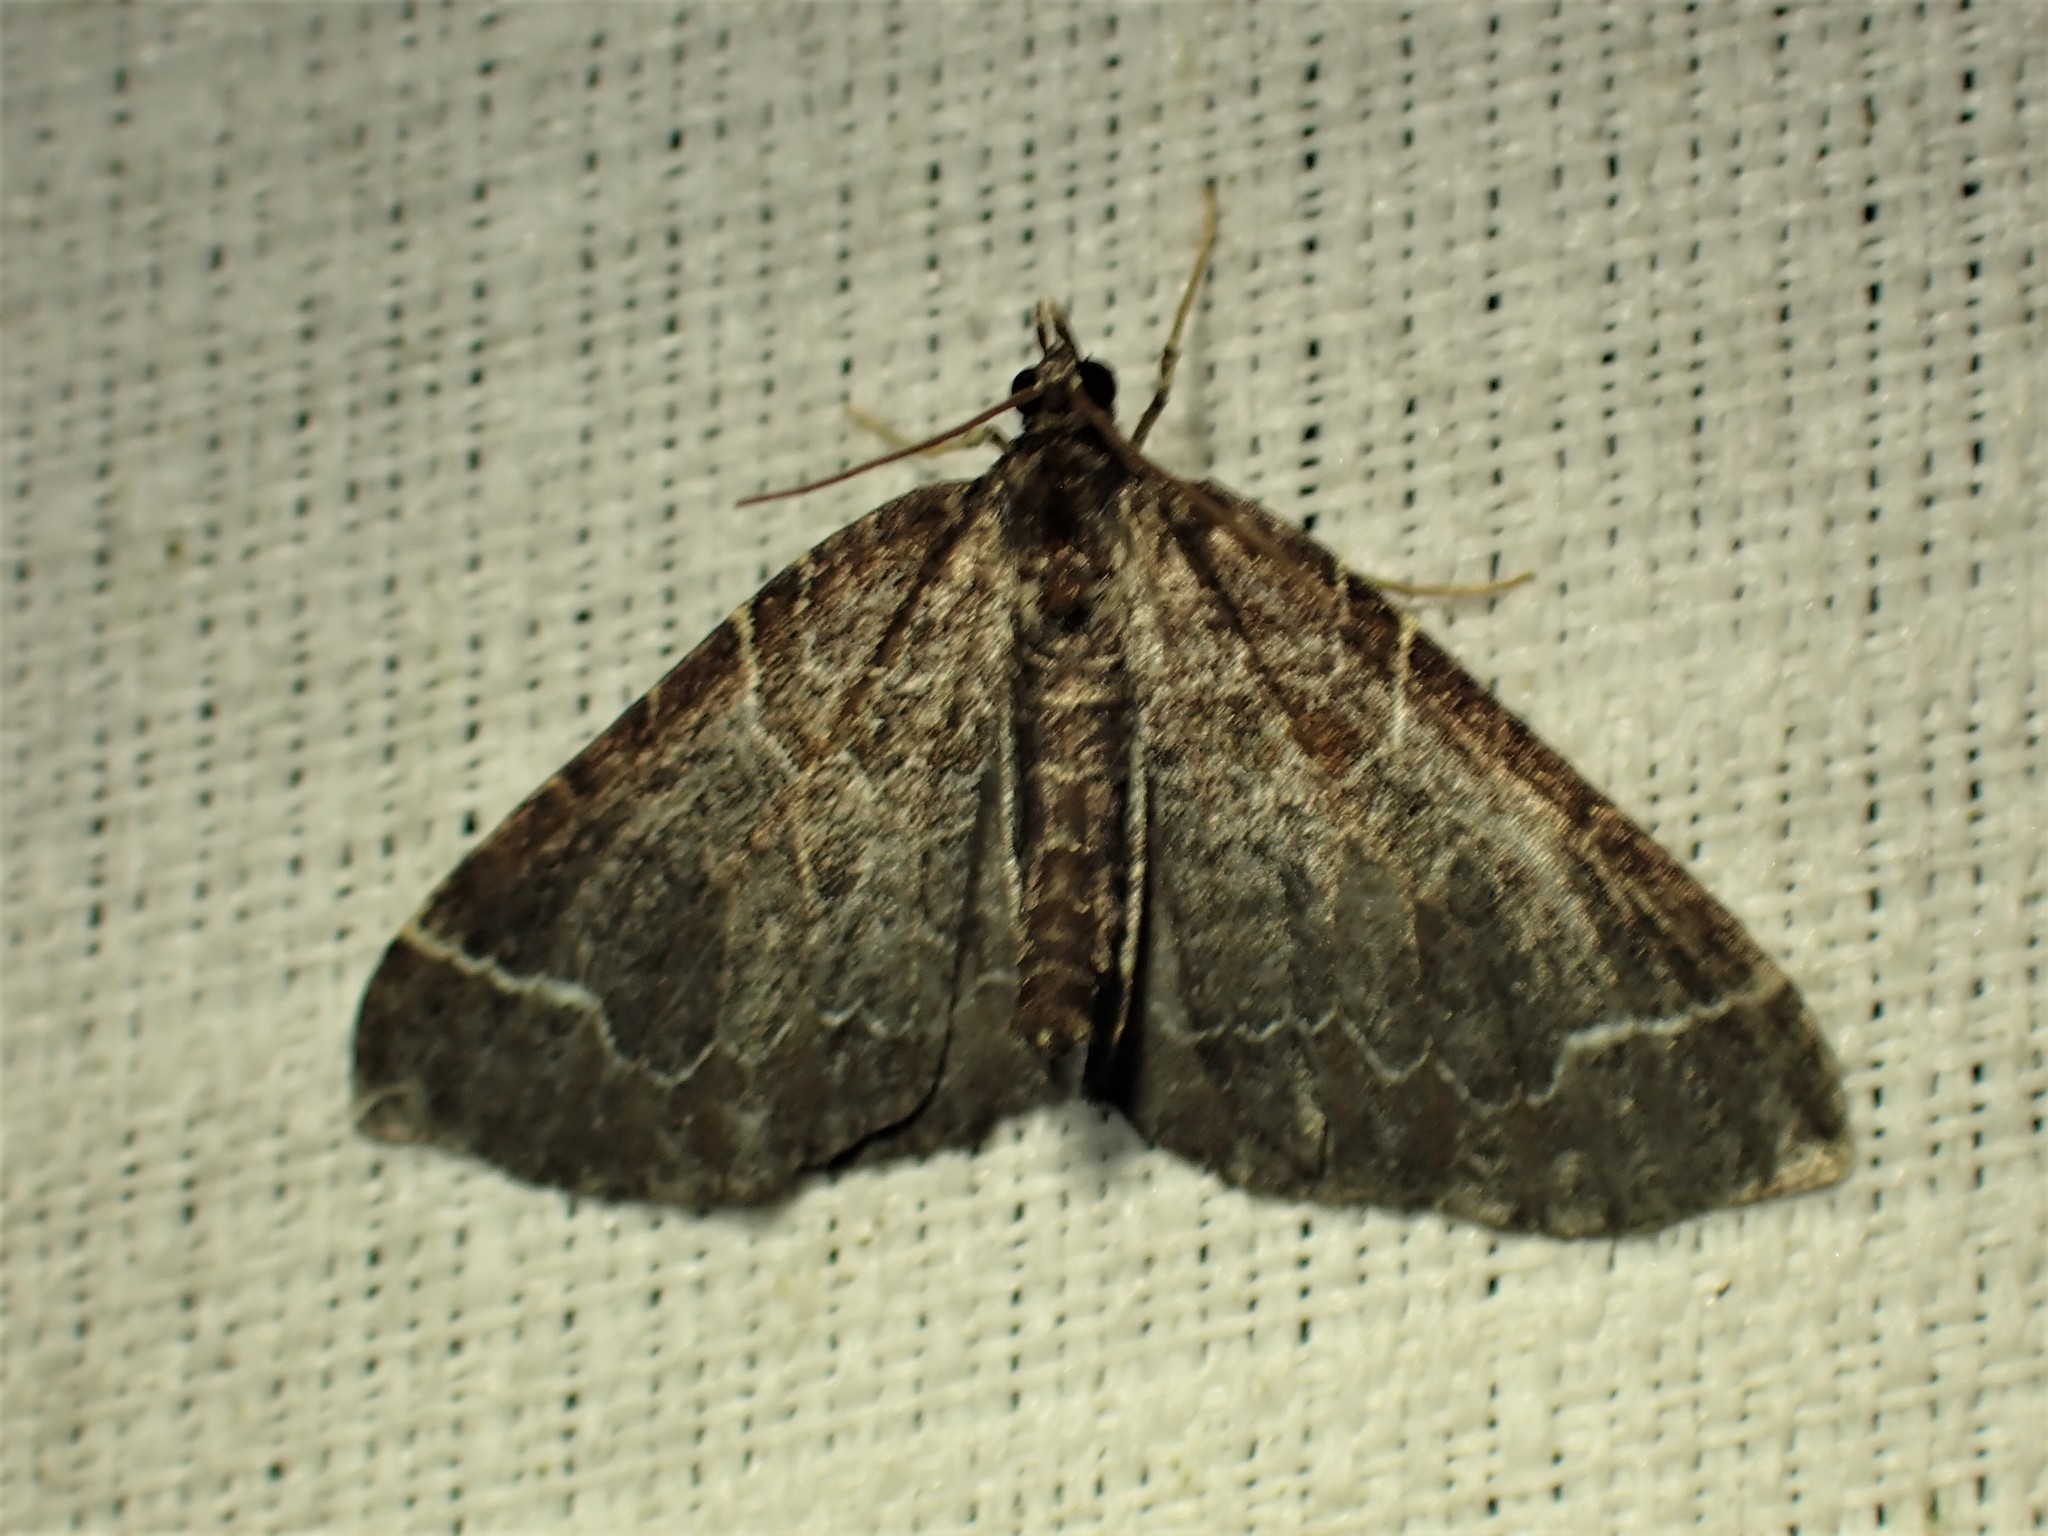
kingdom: Animalia
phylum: Arthropoda
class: Insecta
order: Lepidoptera
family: Geometridae
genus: Eulithis
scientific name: Eulithis flavibrunneata
